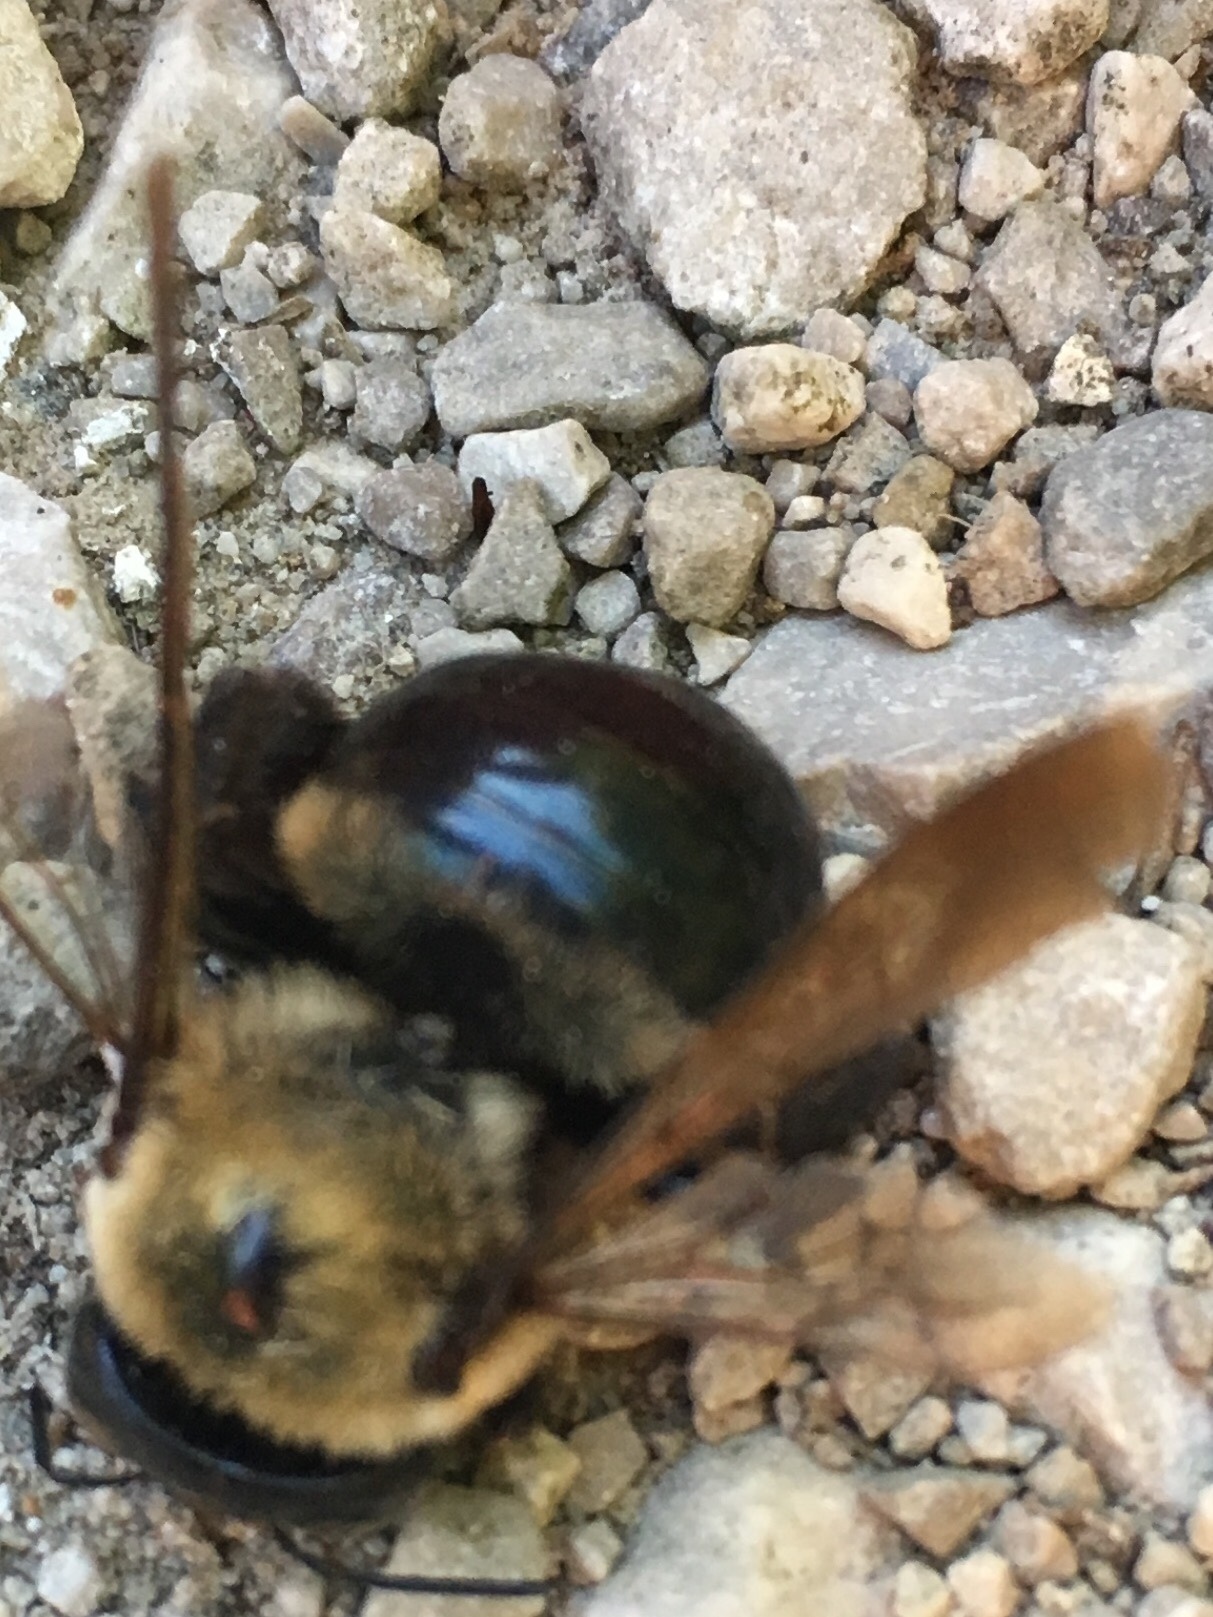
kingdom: Animalia
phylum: Arthropoda
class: Insecta
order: Hymenoptera
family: Apidae
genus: Xylocopa
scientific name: Xylocopa virginica
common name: Carpenter bee
